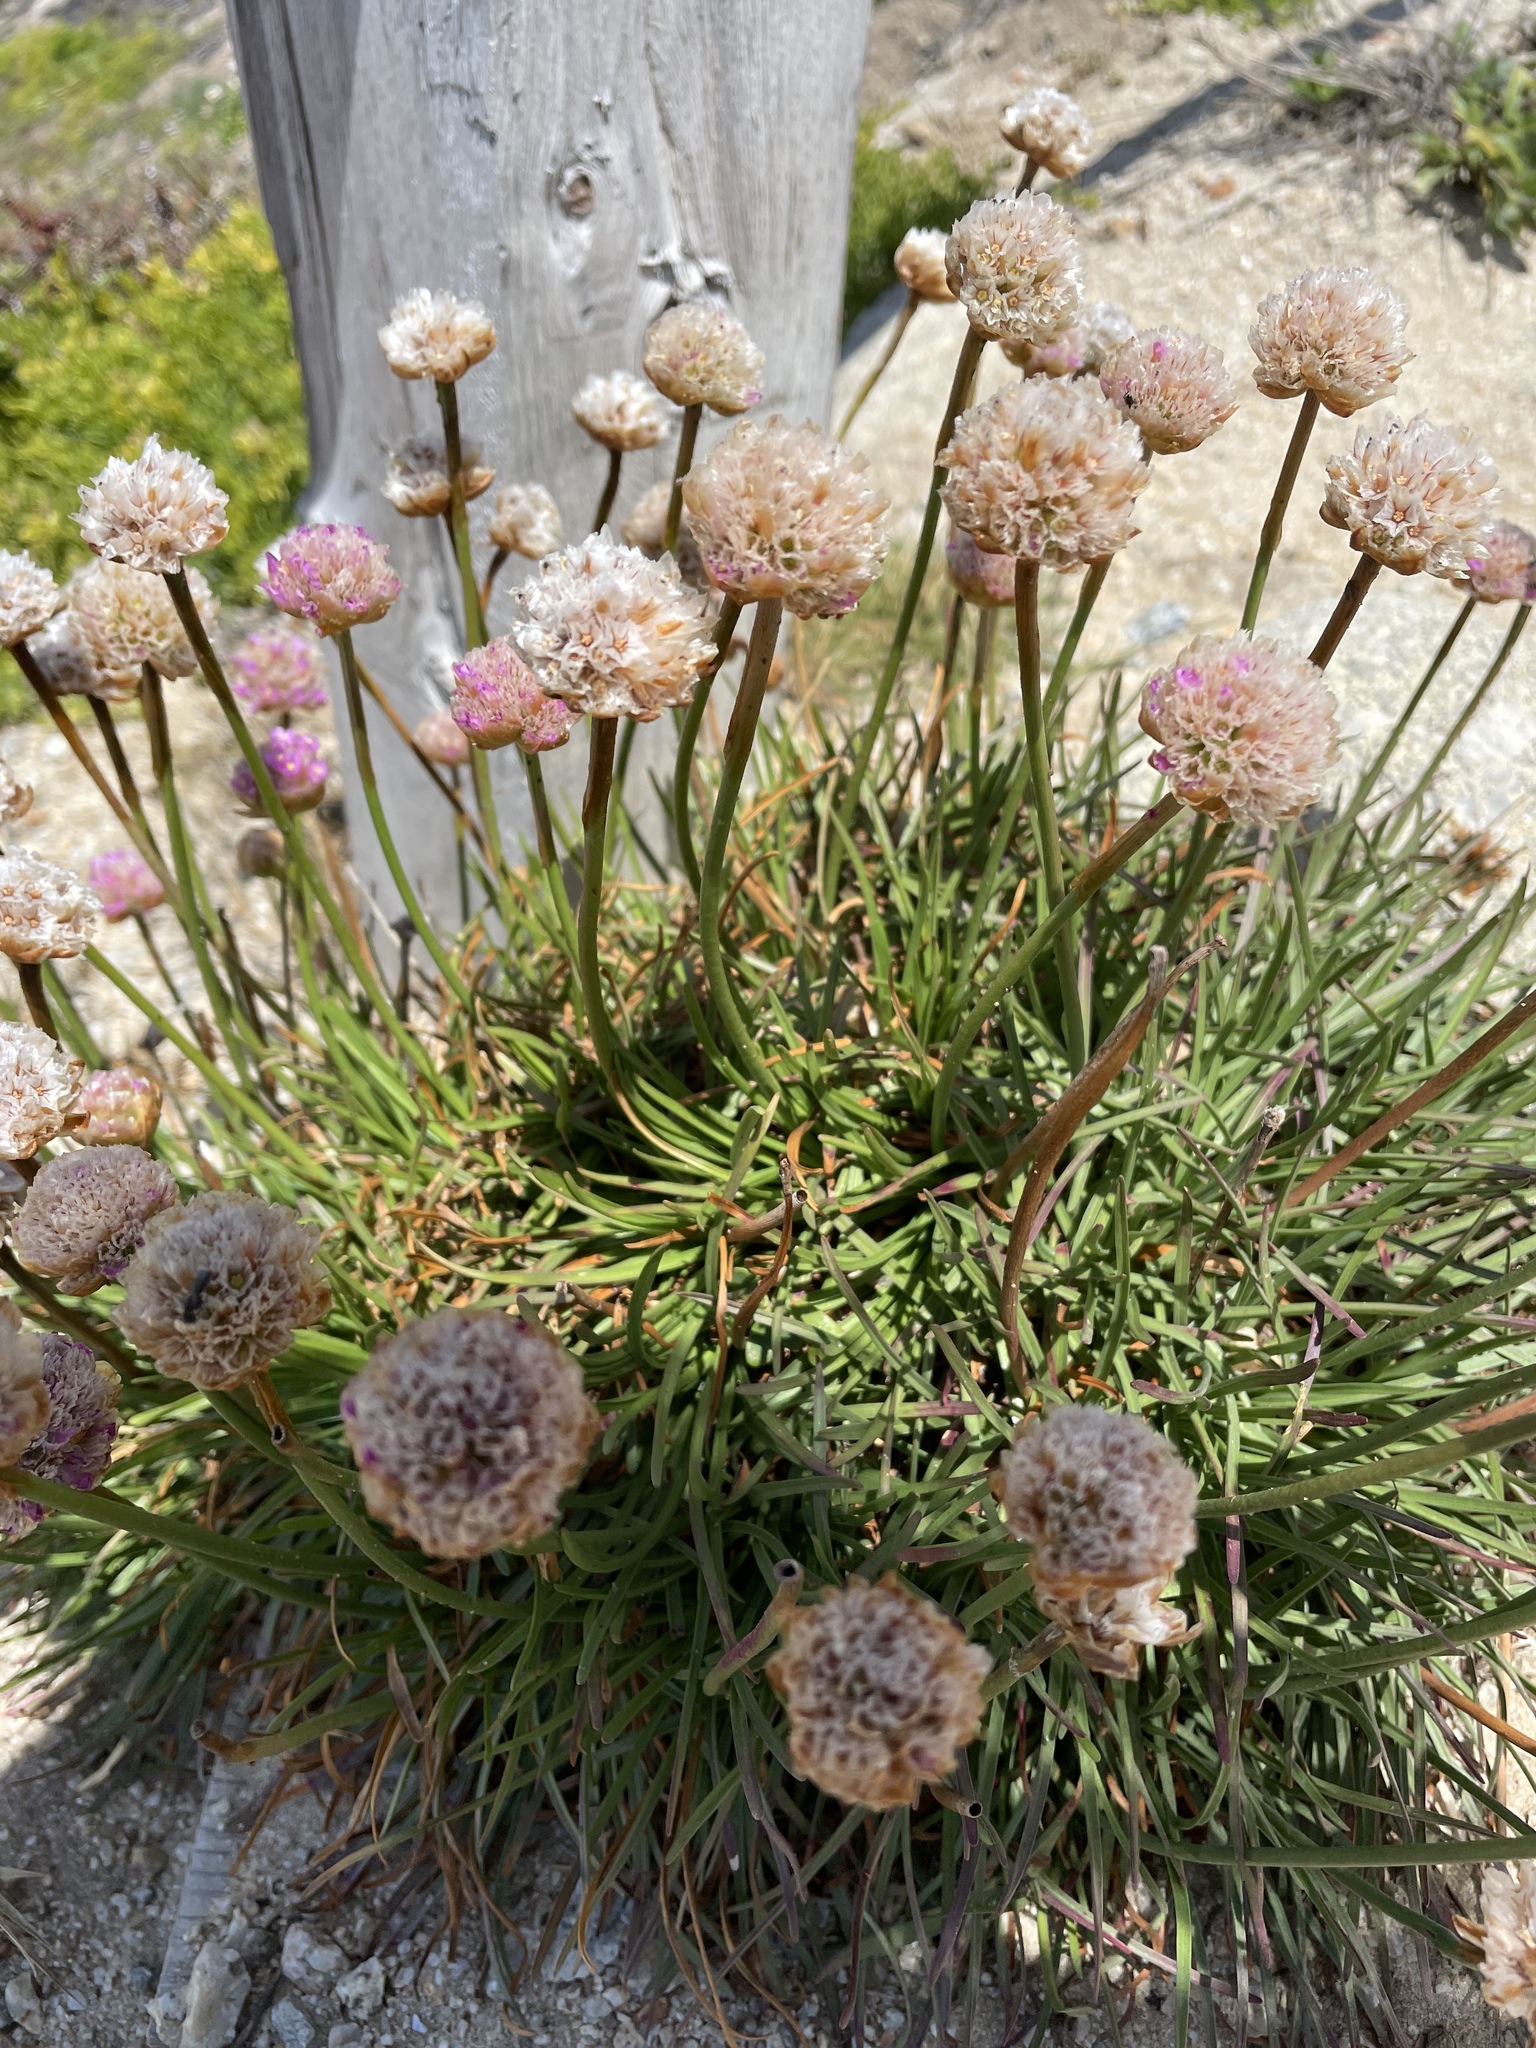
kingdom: Plantae
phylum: Tracheophyta
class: Magnoliopsida
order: Caryophyllales
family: Plumbaginaceae
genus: Armeria
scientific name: Armeria maritima
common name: Thrift
